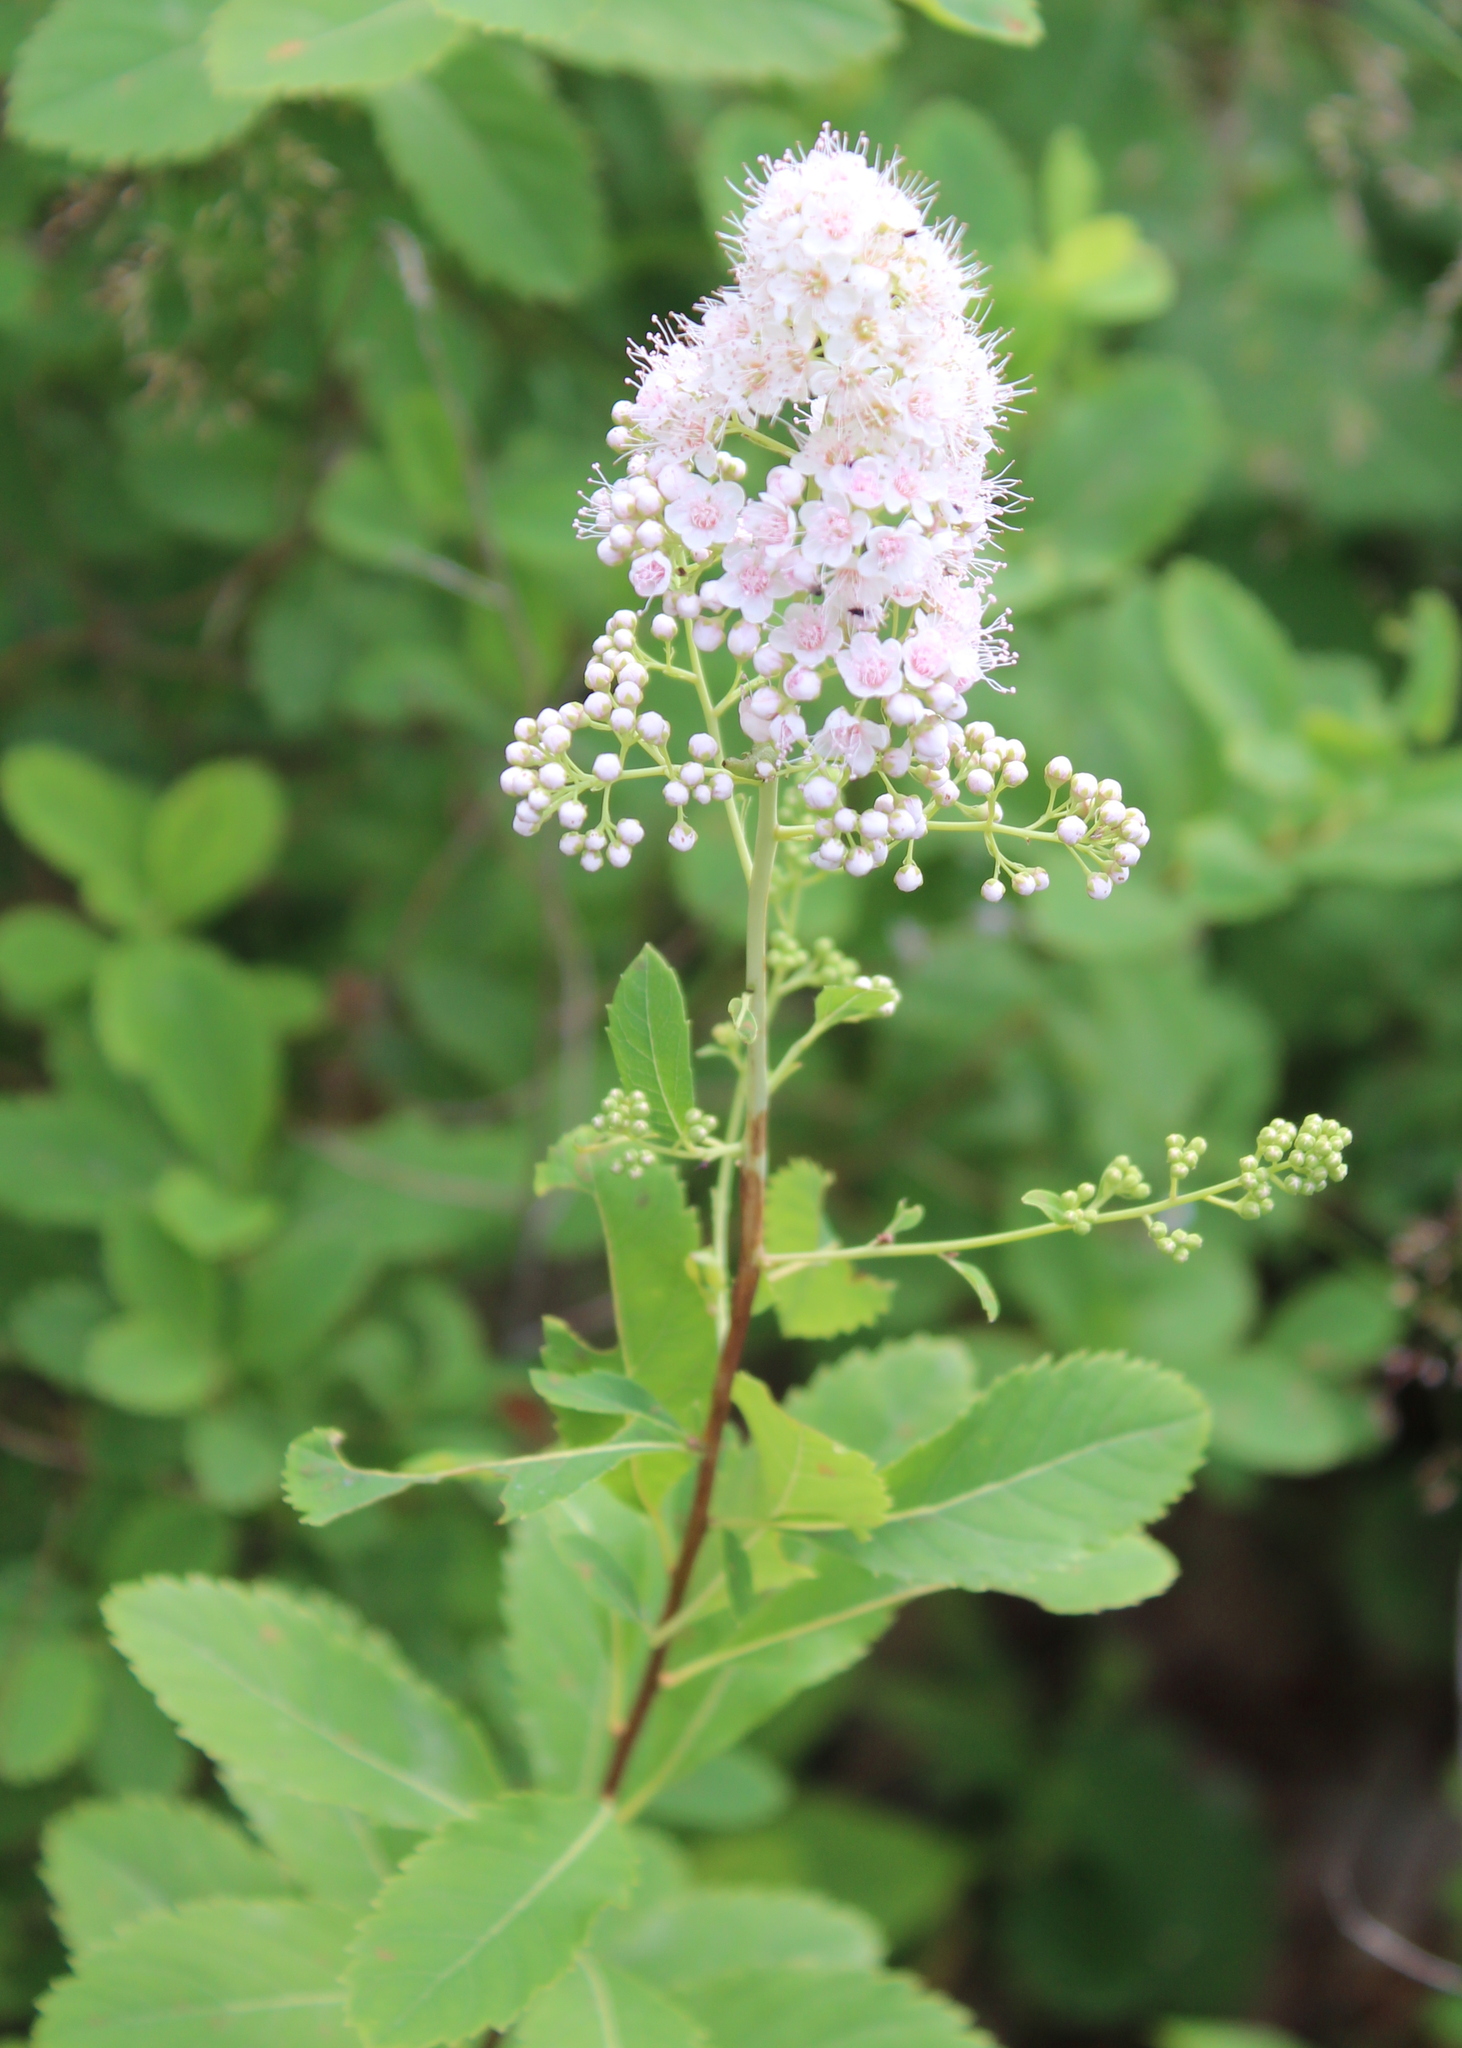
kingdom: Plantae
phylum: Tracheophyta
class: Magnoliopsida
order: Rosales
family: Rosaceae
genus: Spiraea
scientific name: Spiraea alba
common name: Pale bridewort
